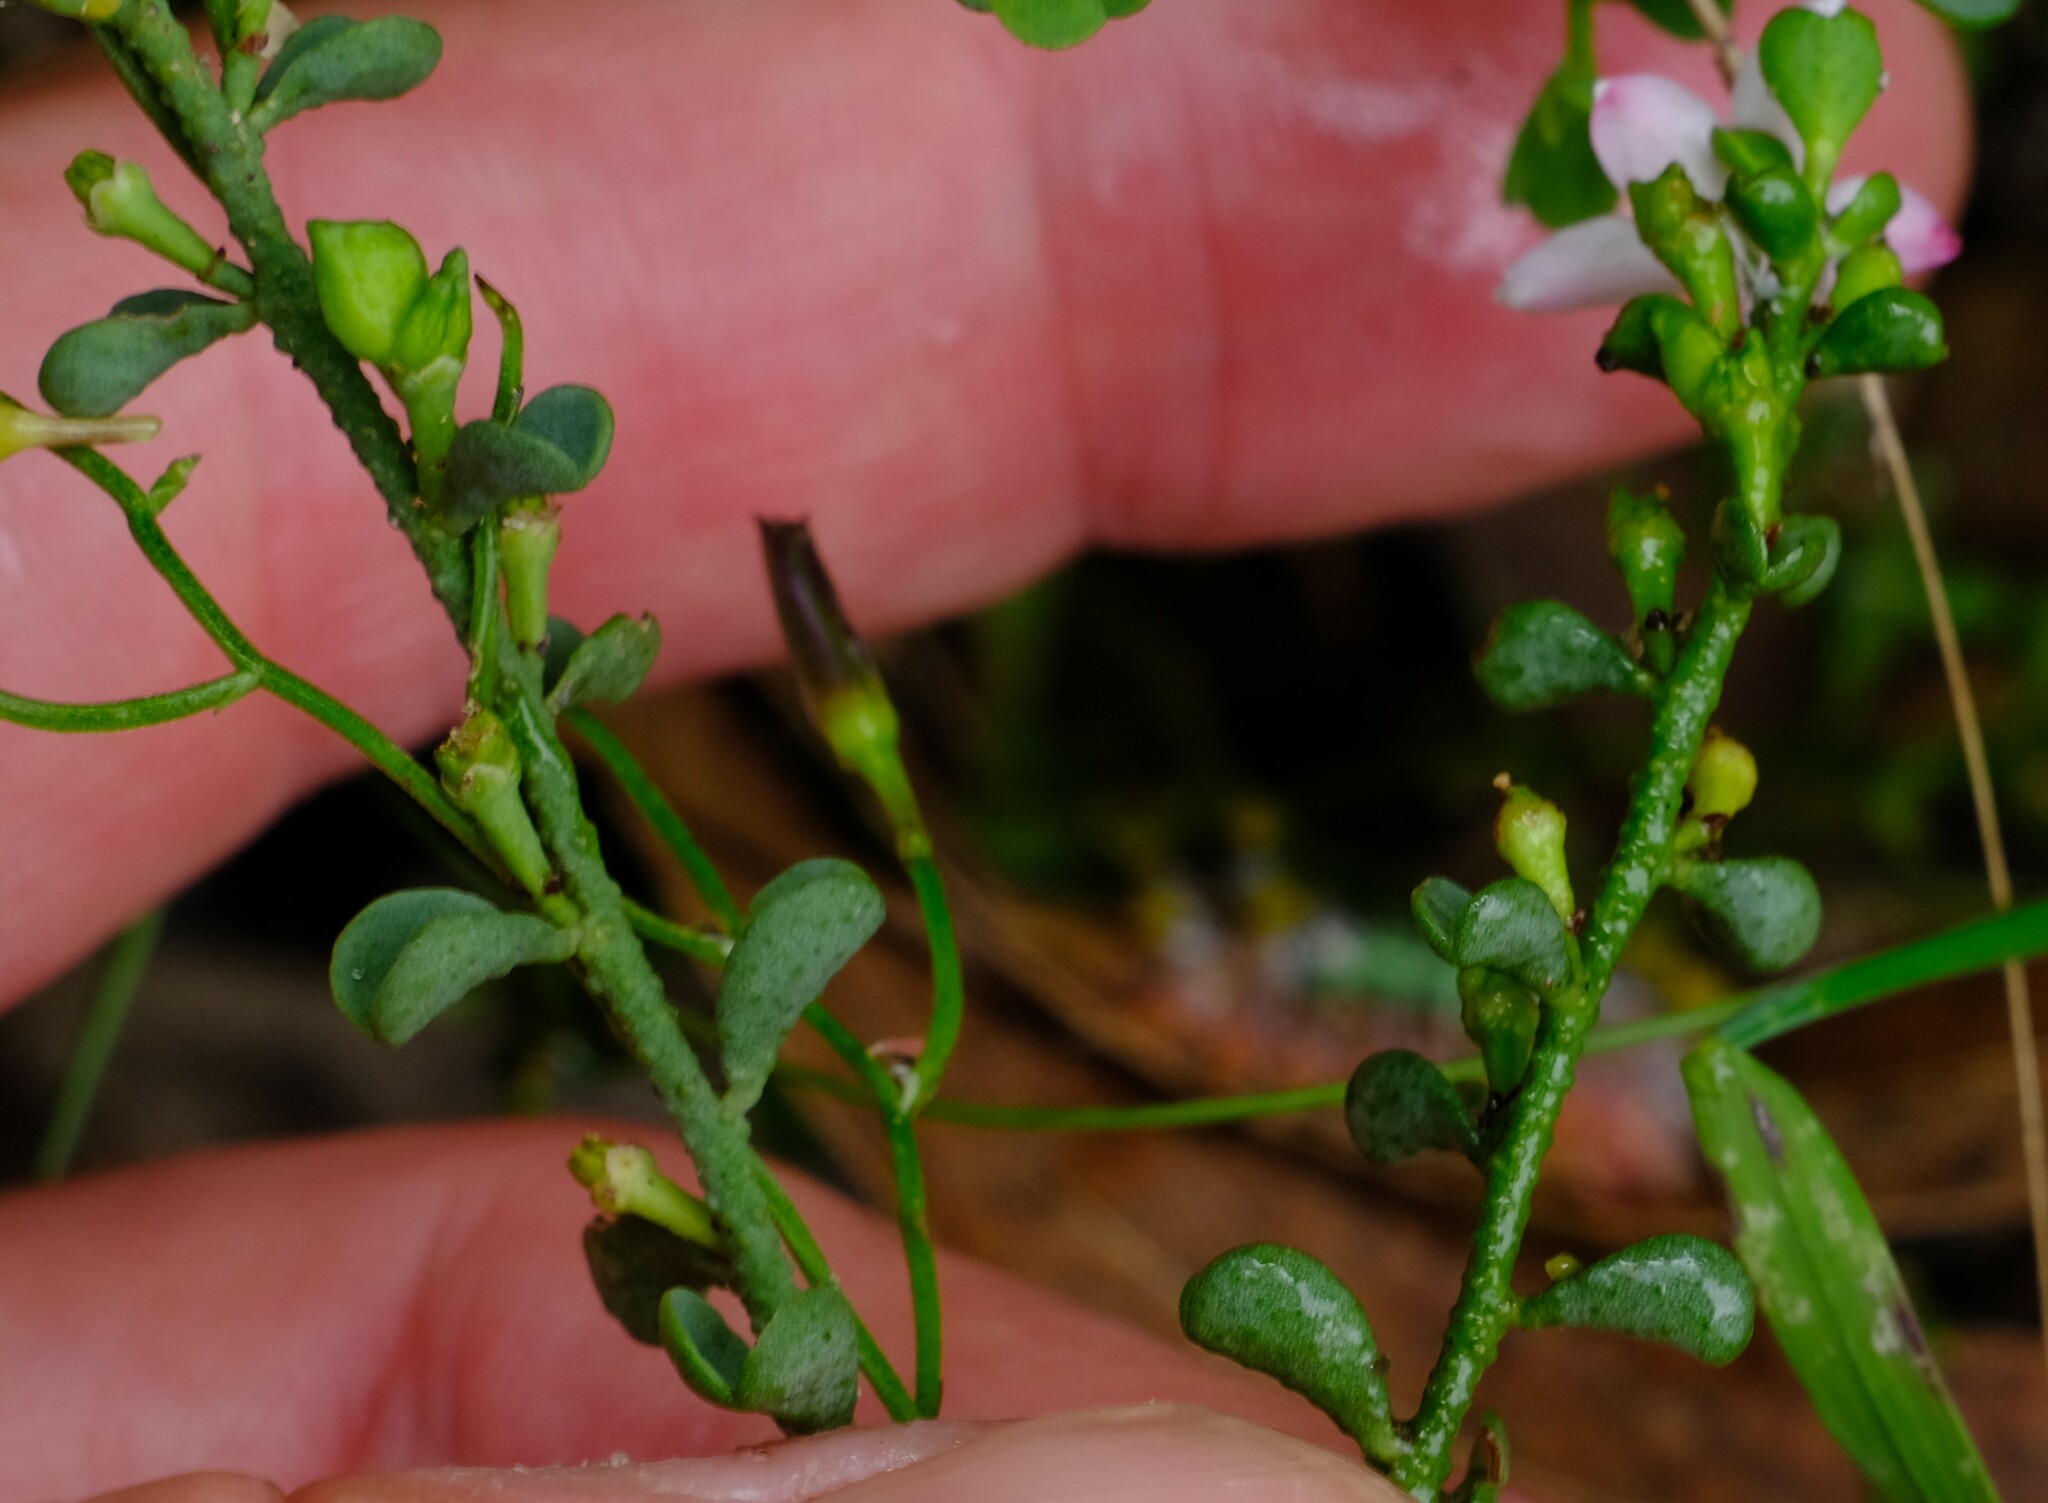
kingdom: Plantae
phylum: Tracheophyta
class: Magnoliopsida
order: Sapindales
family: Rutaceae
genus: Philotheca
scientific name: Philotheca verrucosa
